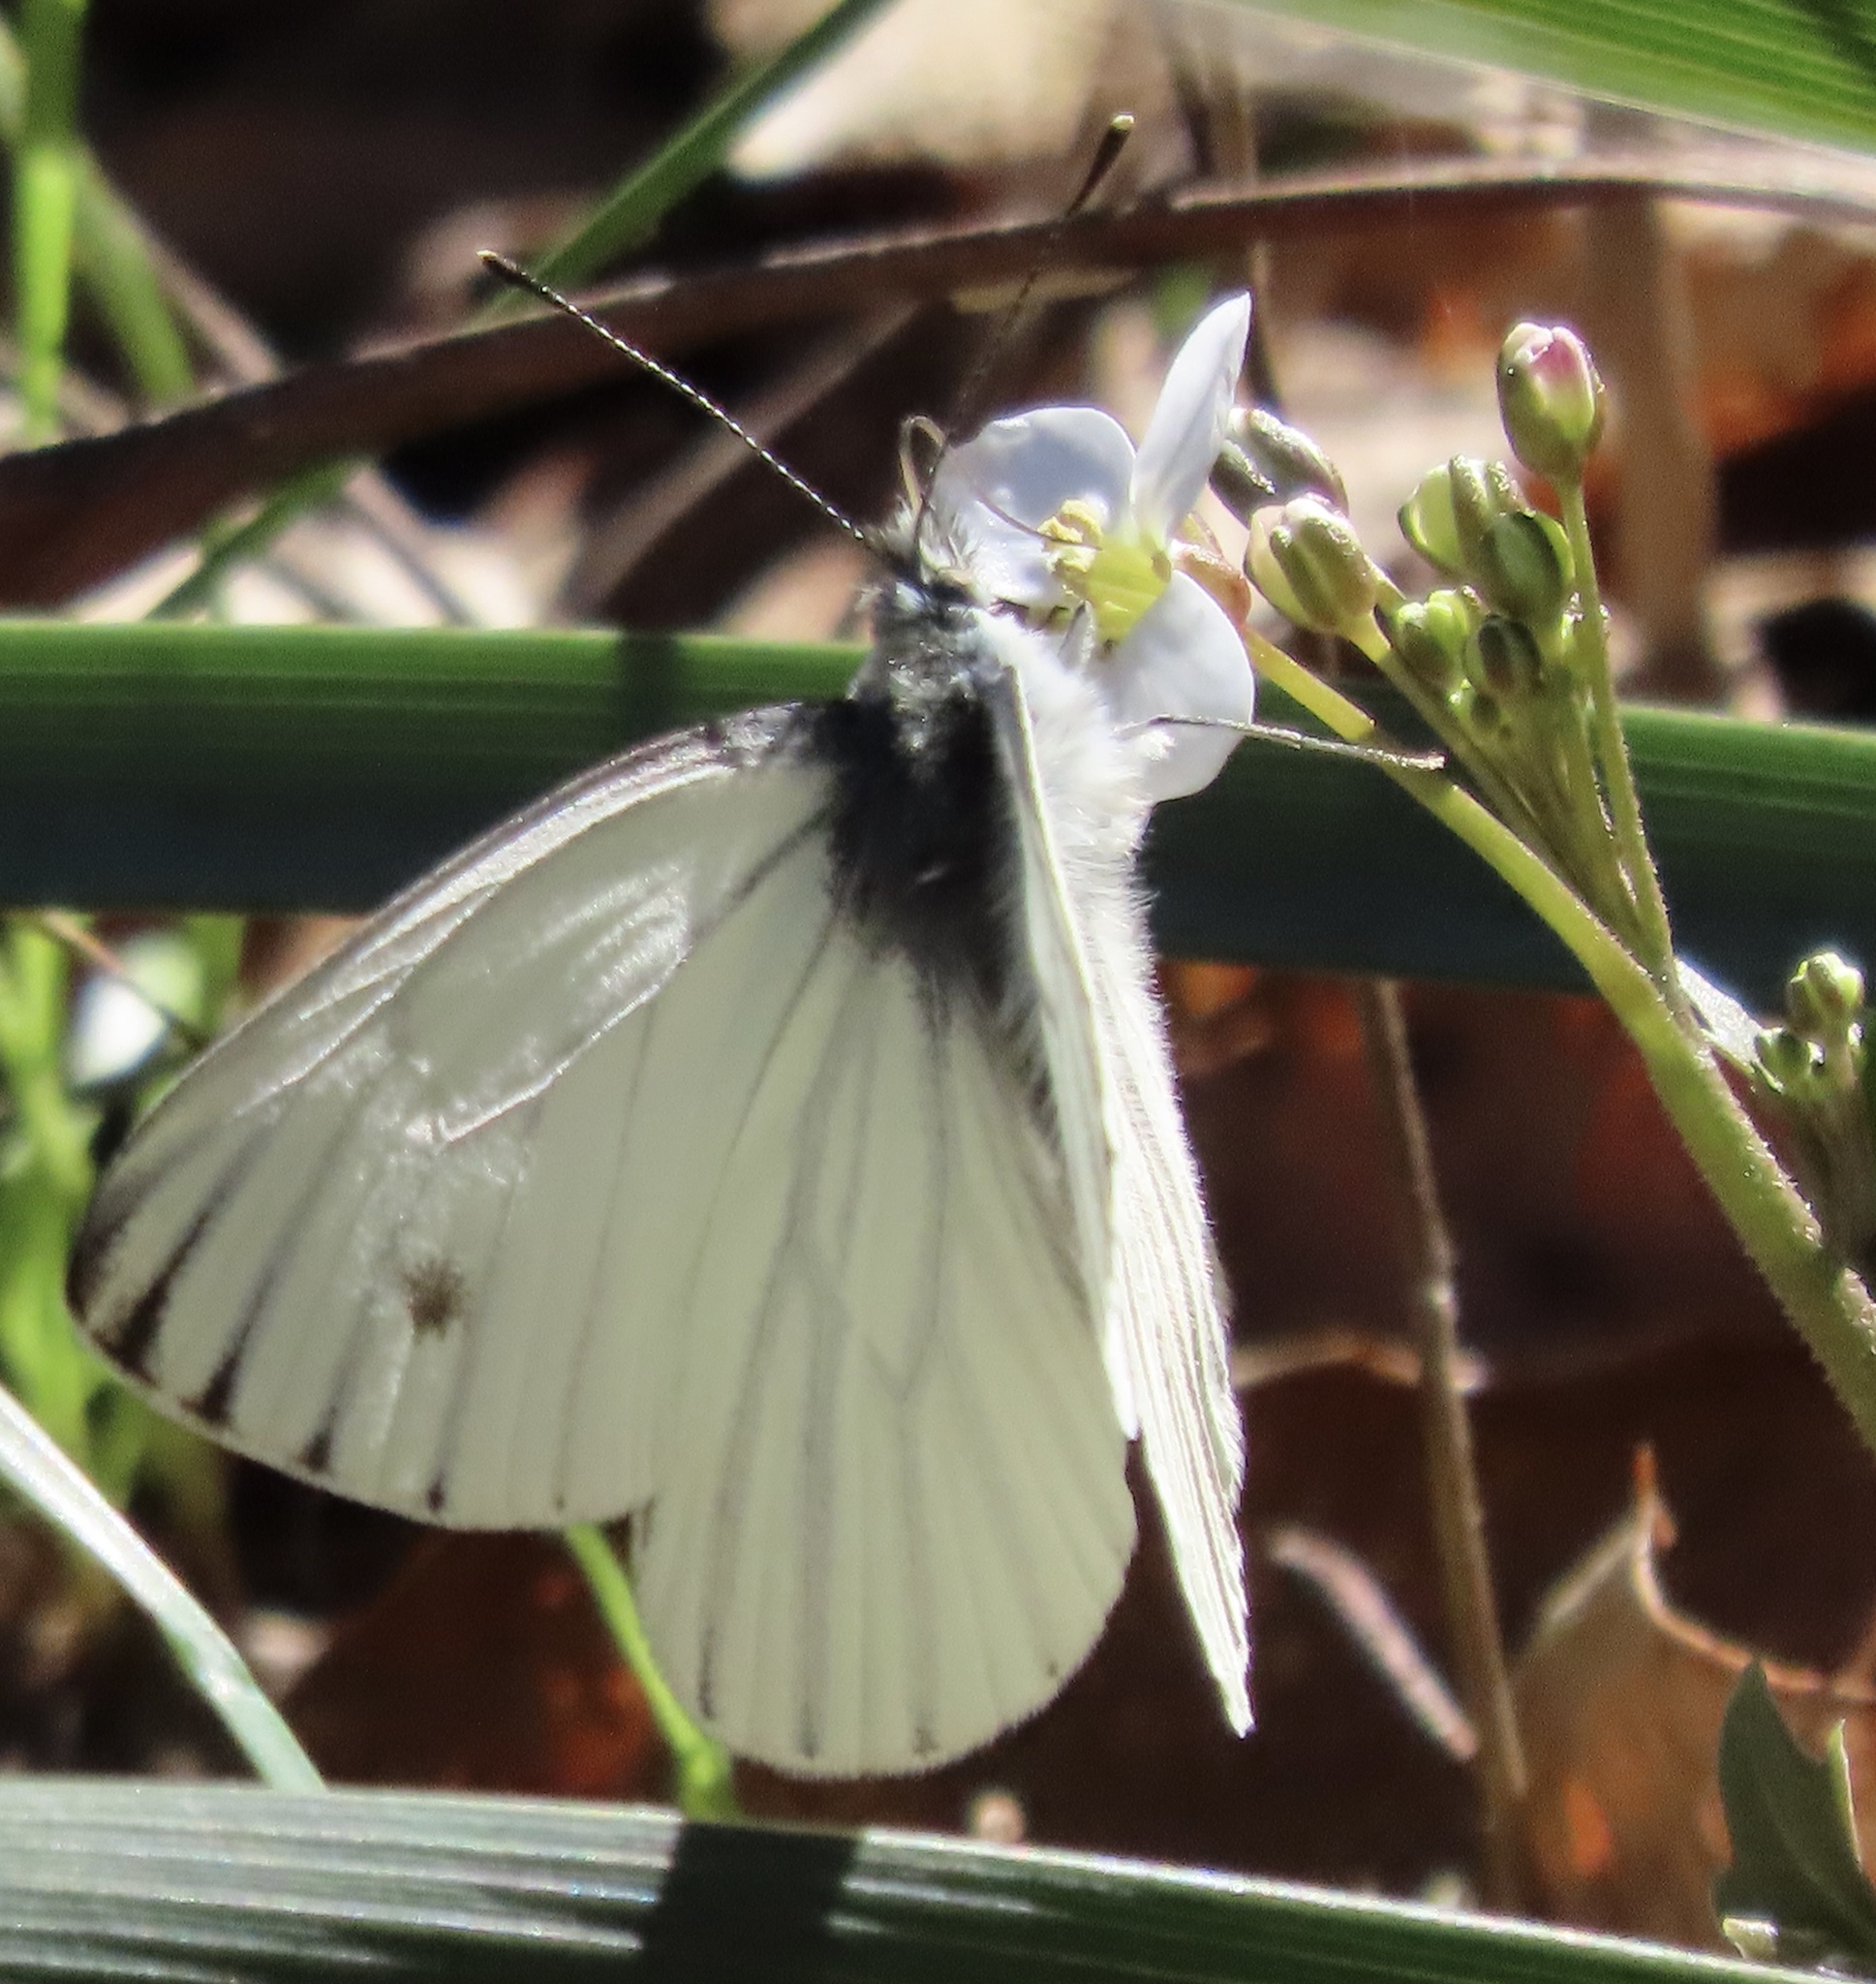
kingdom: Animalia
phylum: Arthropoda
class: Insecta
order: Lepidoptera
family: Pieridae
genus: Pieris
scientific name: Pieris marginalis
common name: Margined white
